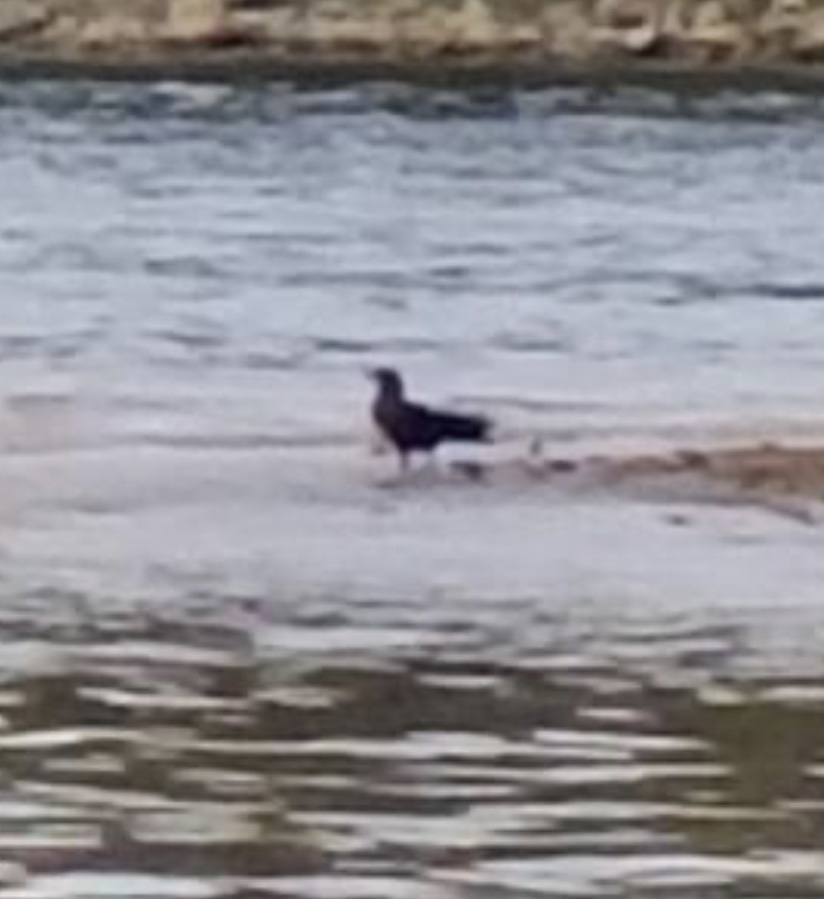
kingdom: Animalia
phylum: Chordata
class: Aves
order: Passeriformes
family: Corvidae
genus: Corvus
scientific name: Corvus ossifragus
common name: Fish crow
